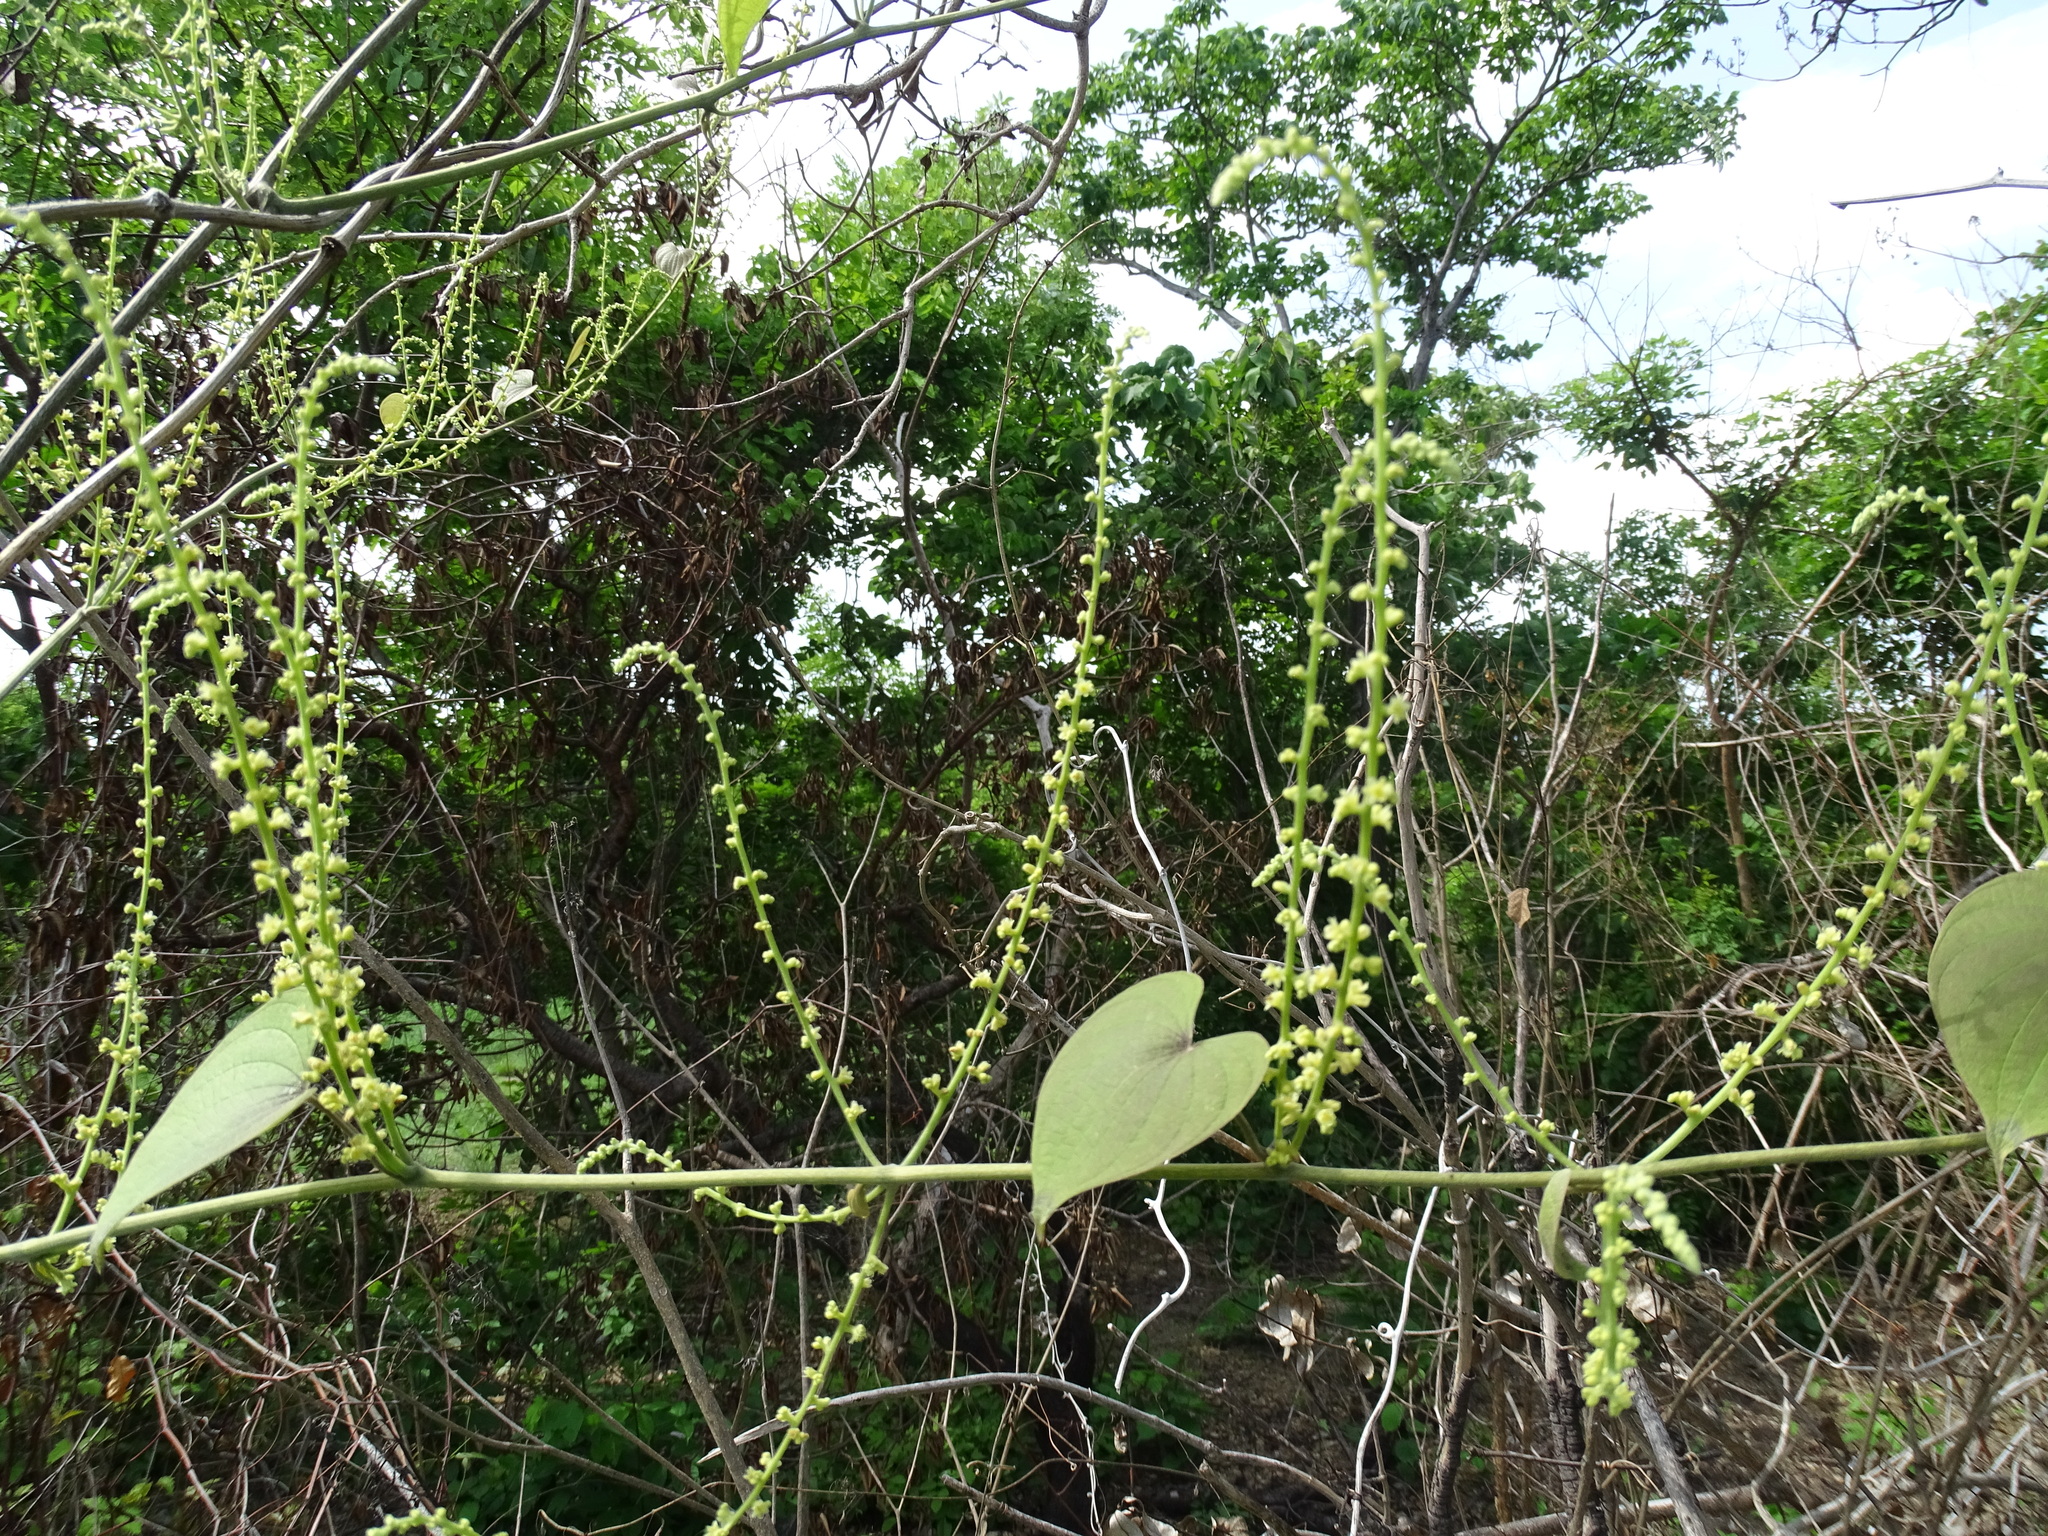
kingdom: Plantae
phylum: Tracheophyta
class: Liliopsida
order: Dioscoreales
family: Dioscoreaceae
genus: Dioscorea
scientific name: Dioscorea carpomaculata
